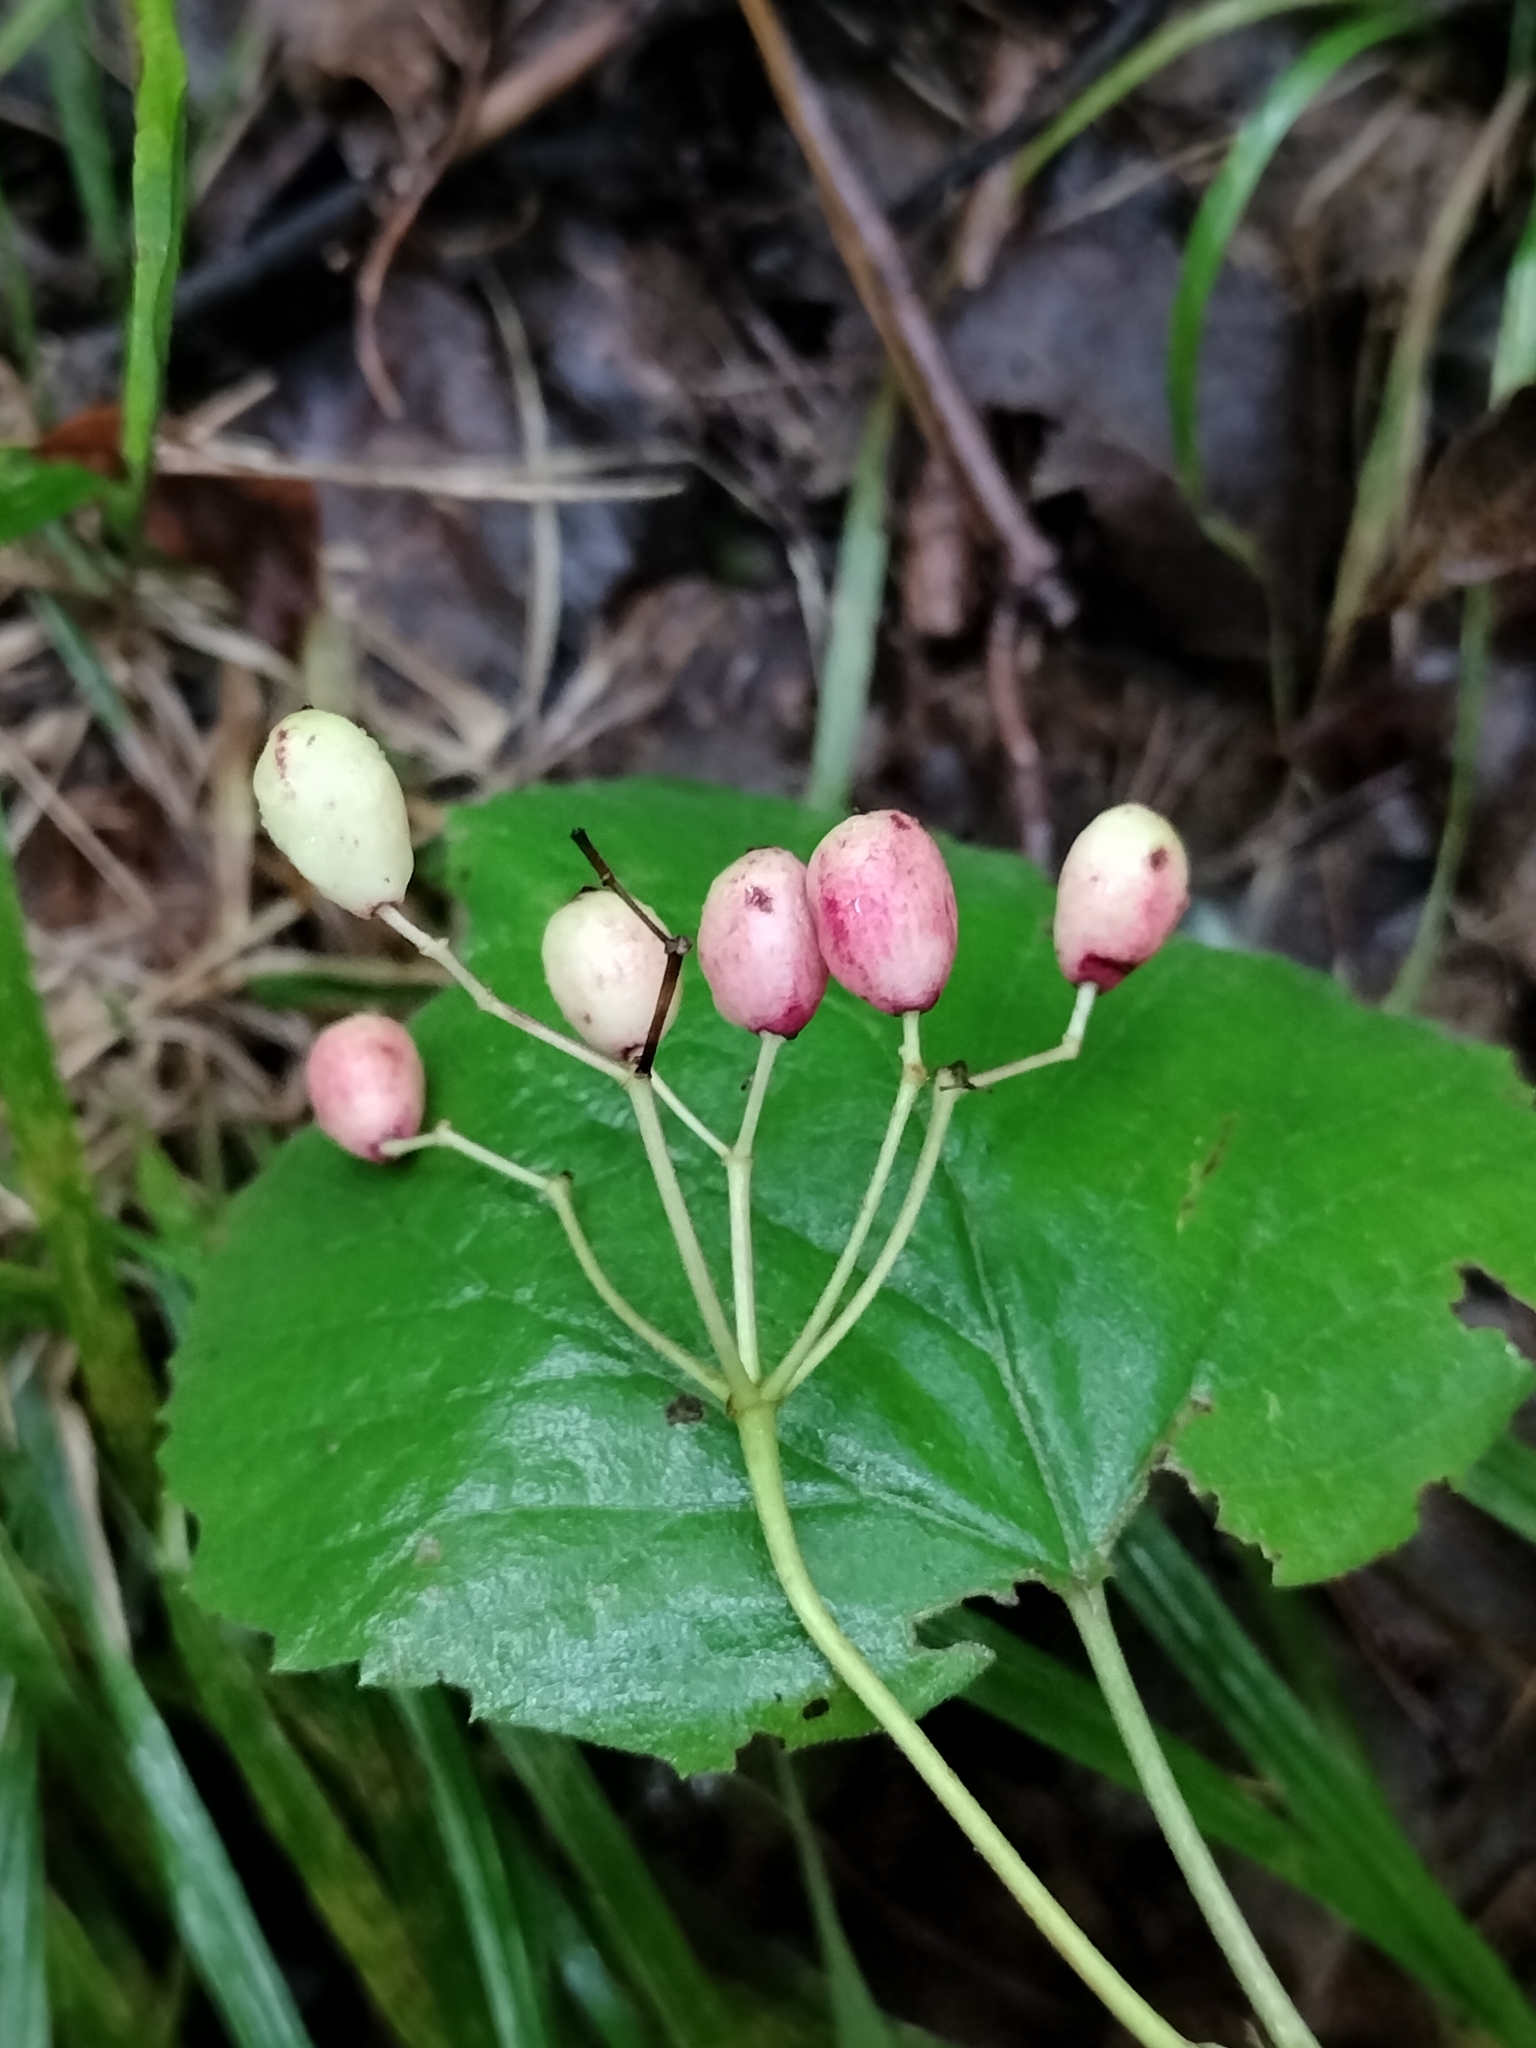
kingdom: Plantae
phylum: Tracheophyta
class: Magnoliopsida
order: Dipsacales
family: Viburnaceae
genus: Viburnum
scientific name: Viburnum acerifolium
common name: Dockmackie
